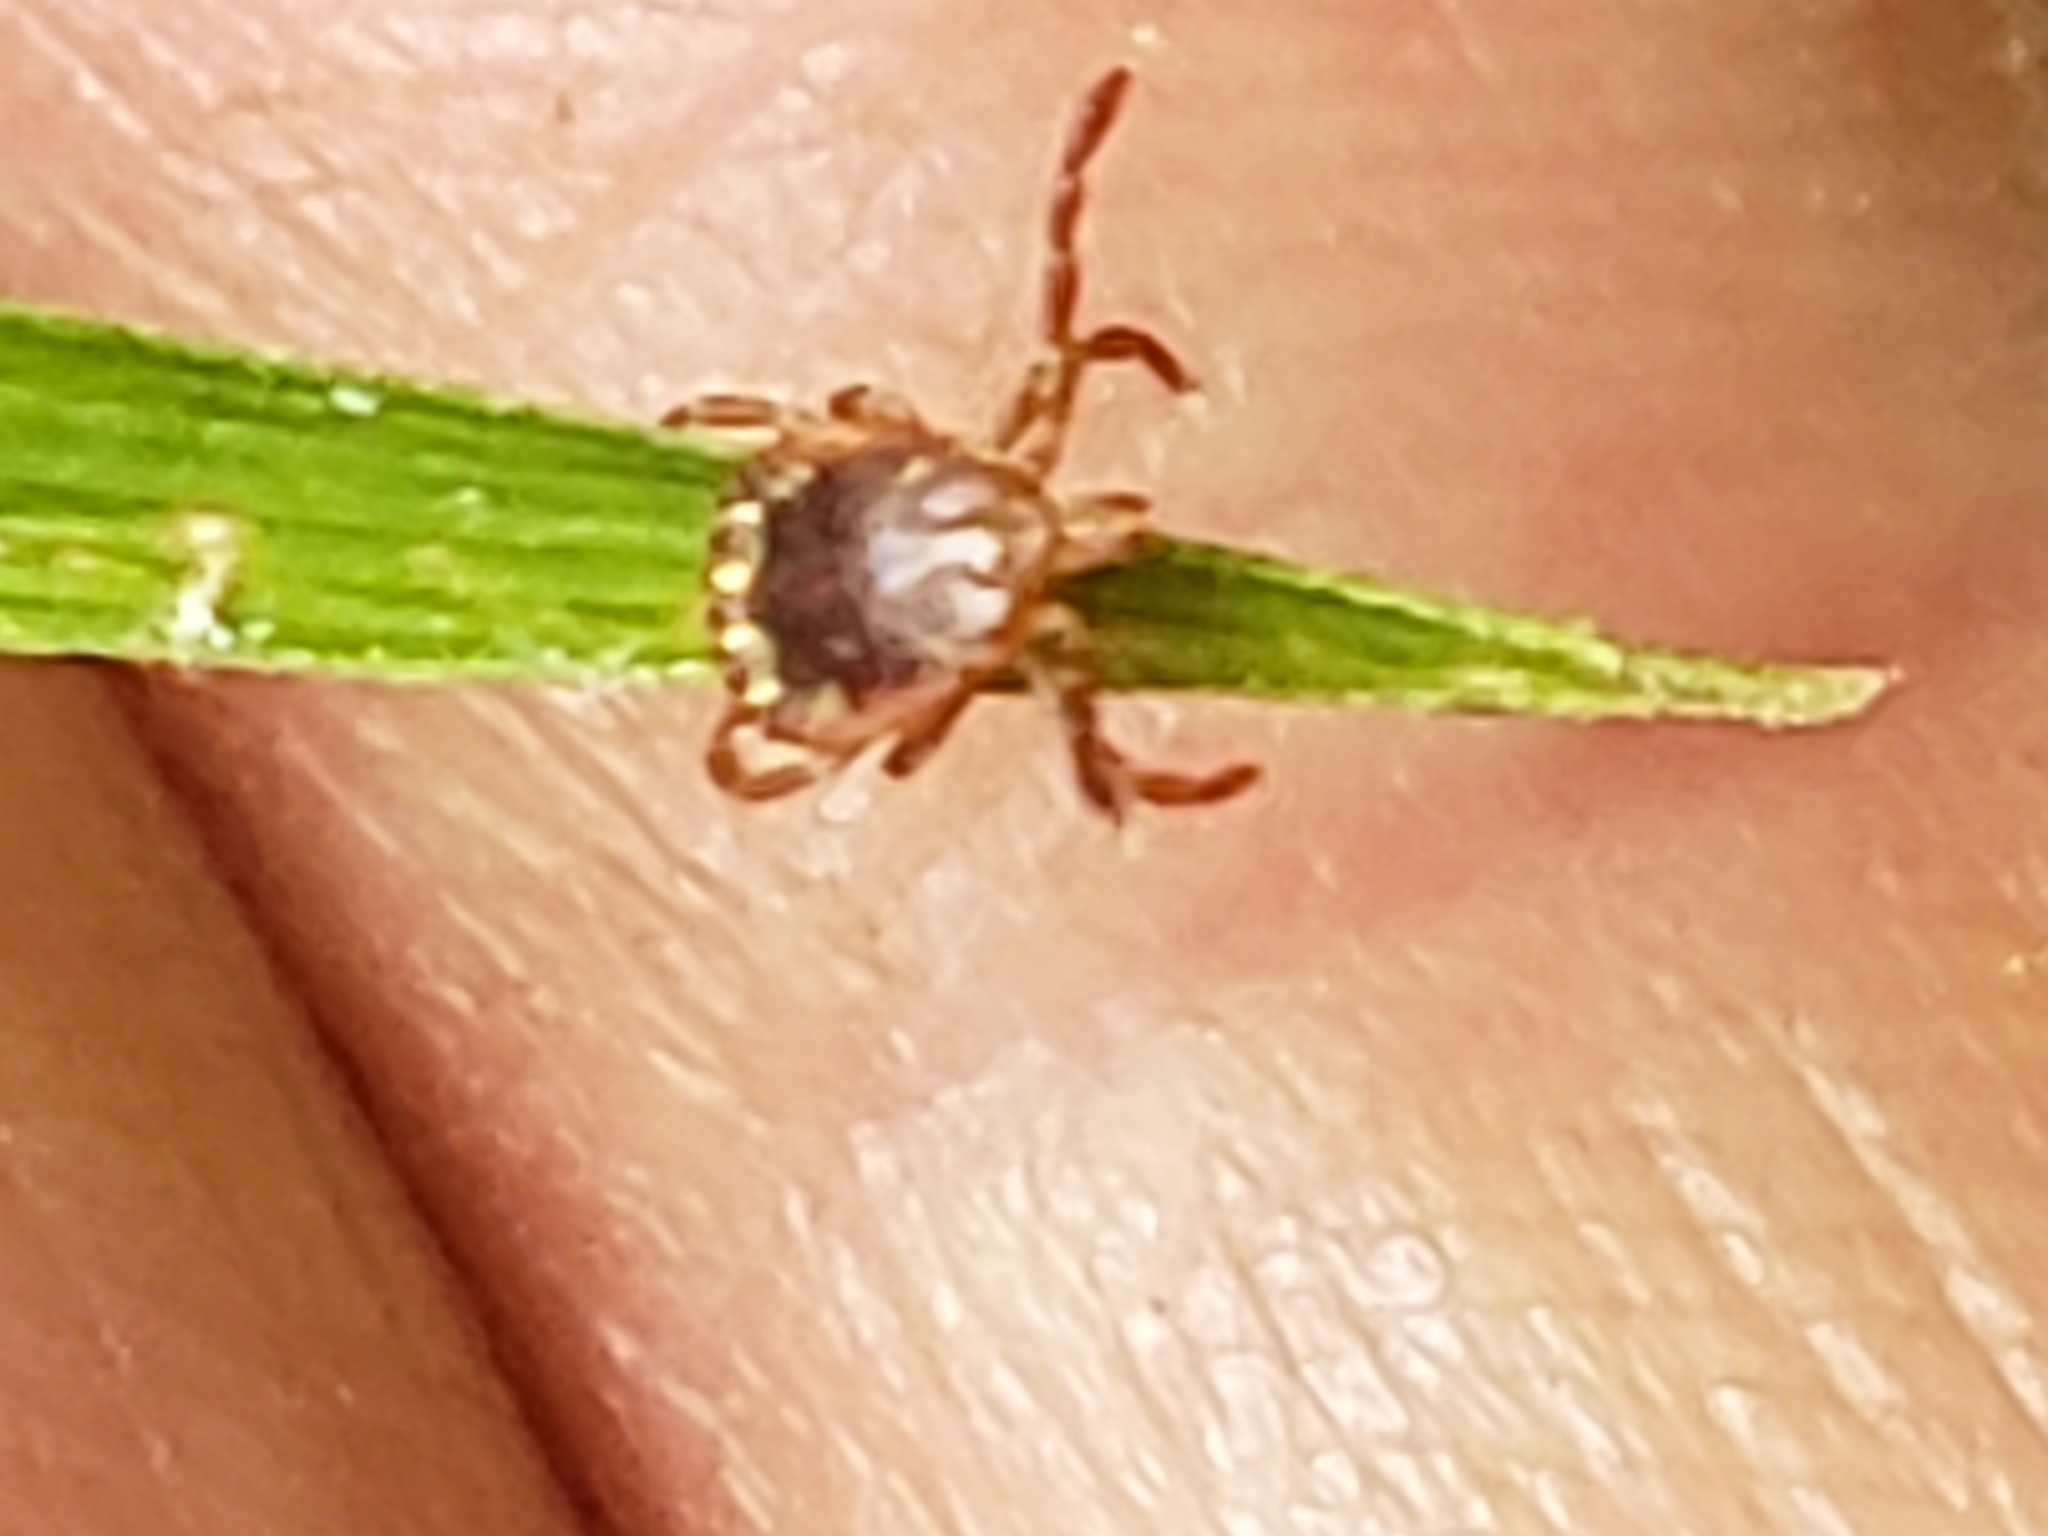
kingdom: Animalia
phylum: Arthropoda
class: Arachnida
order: Ixodida
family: Ixodidae
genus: Amblyomma
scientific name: Amblyomma americanum
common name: Lone star tick
